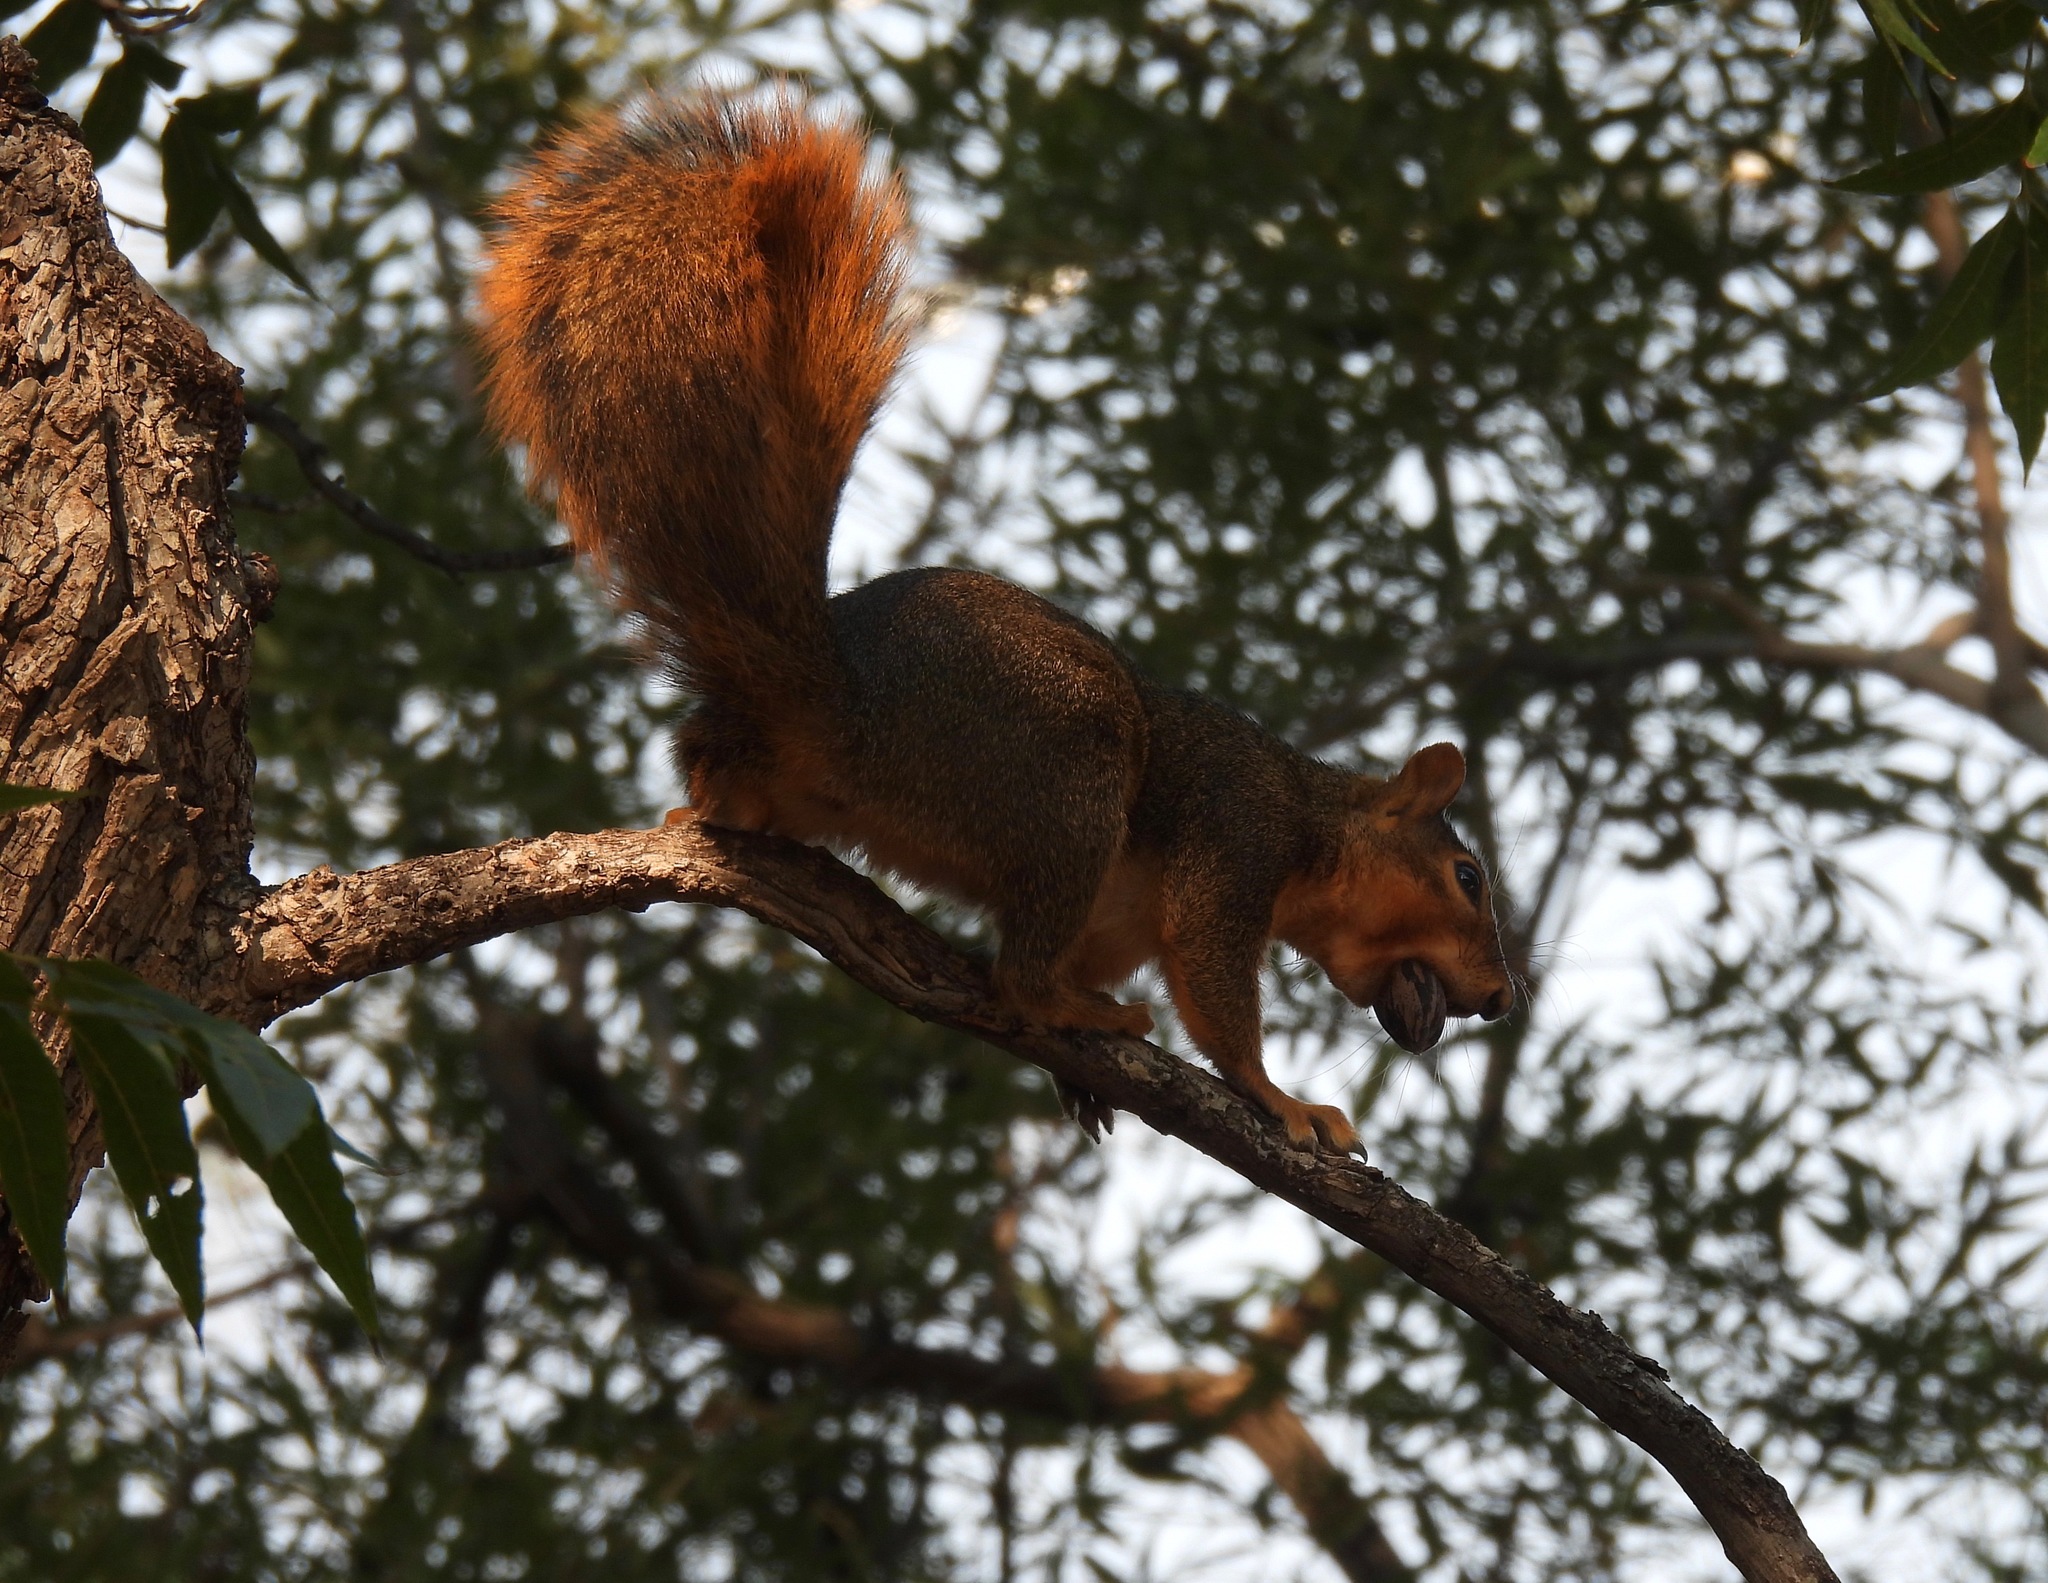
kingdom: Animalia
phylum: Chordata
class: Mammalia
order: Rodentia
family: Sciuridae
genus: Sciurus
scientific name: Sciurus niger
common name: Fox squirrel
